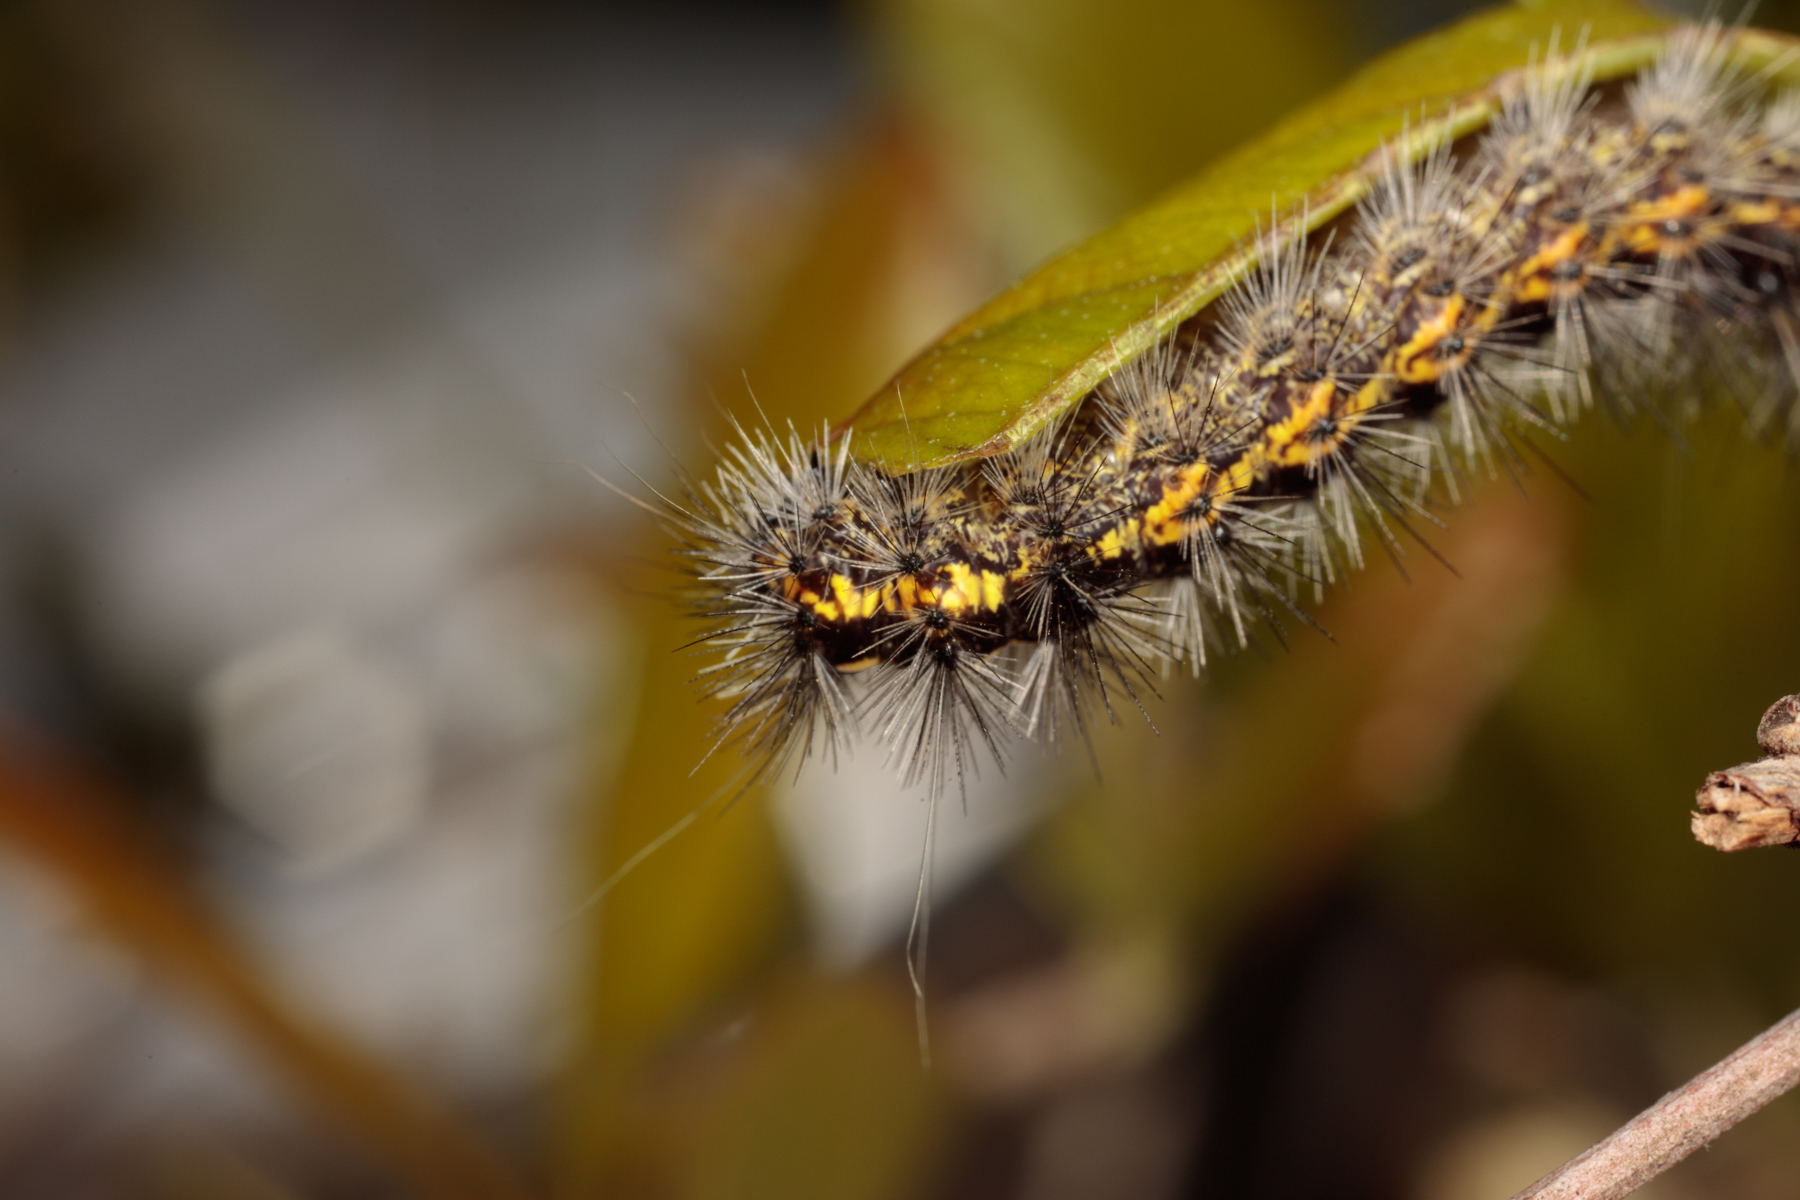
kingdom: Animalia
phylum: Arthropoda
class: Insecta
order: Lepidoptera
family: Erebidae
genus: Spilosoma
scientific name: Spilosoma dubia
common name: Dubious tiger moth
